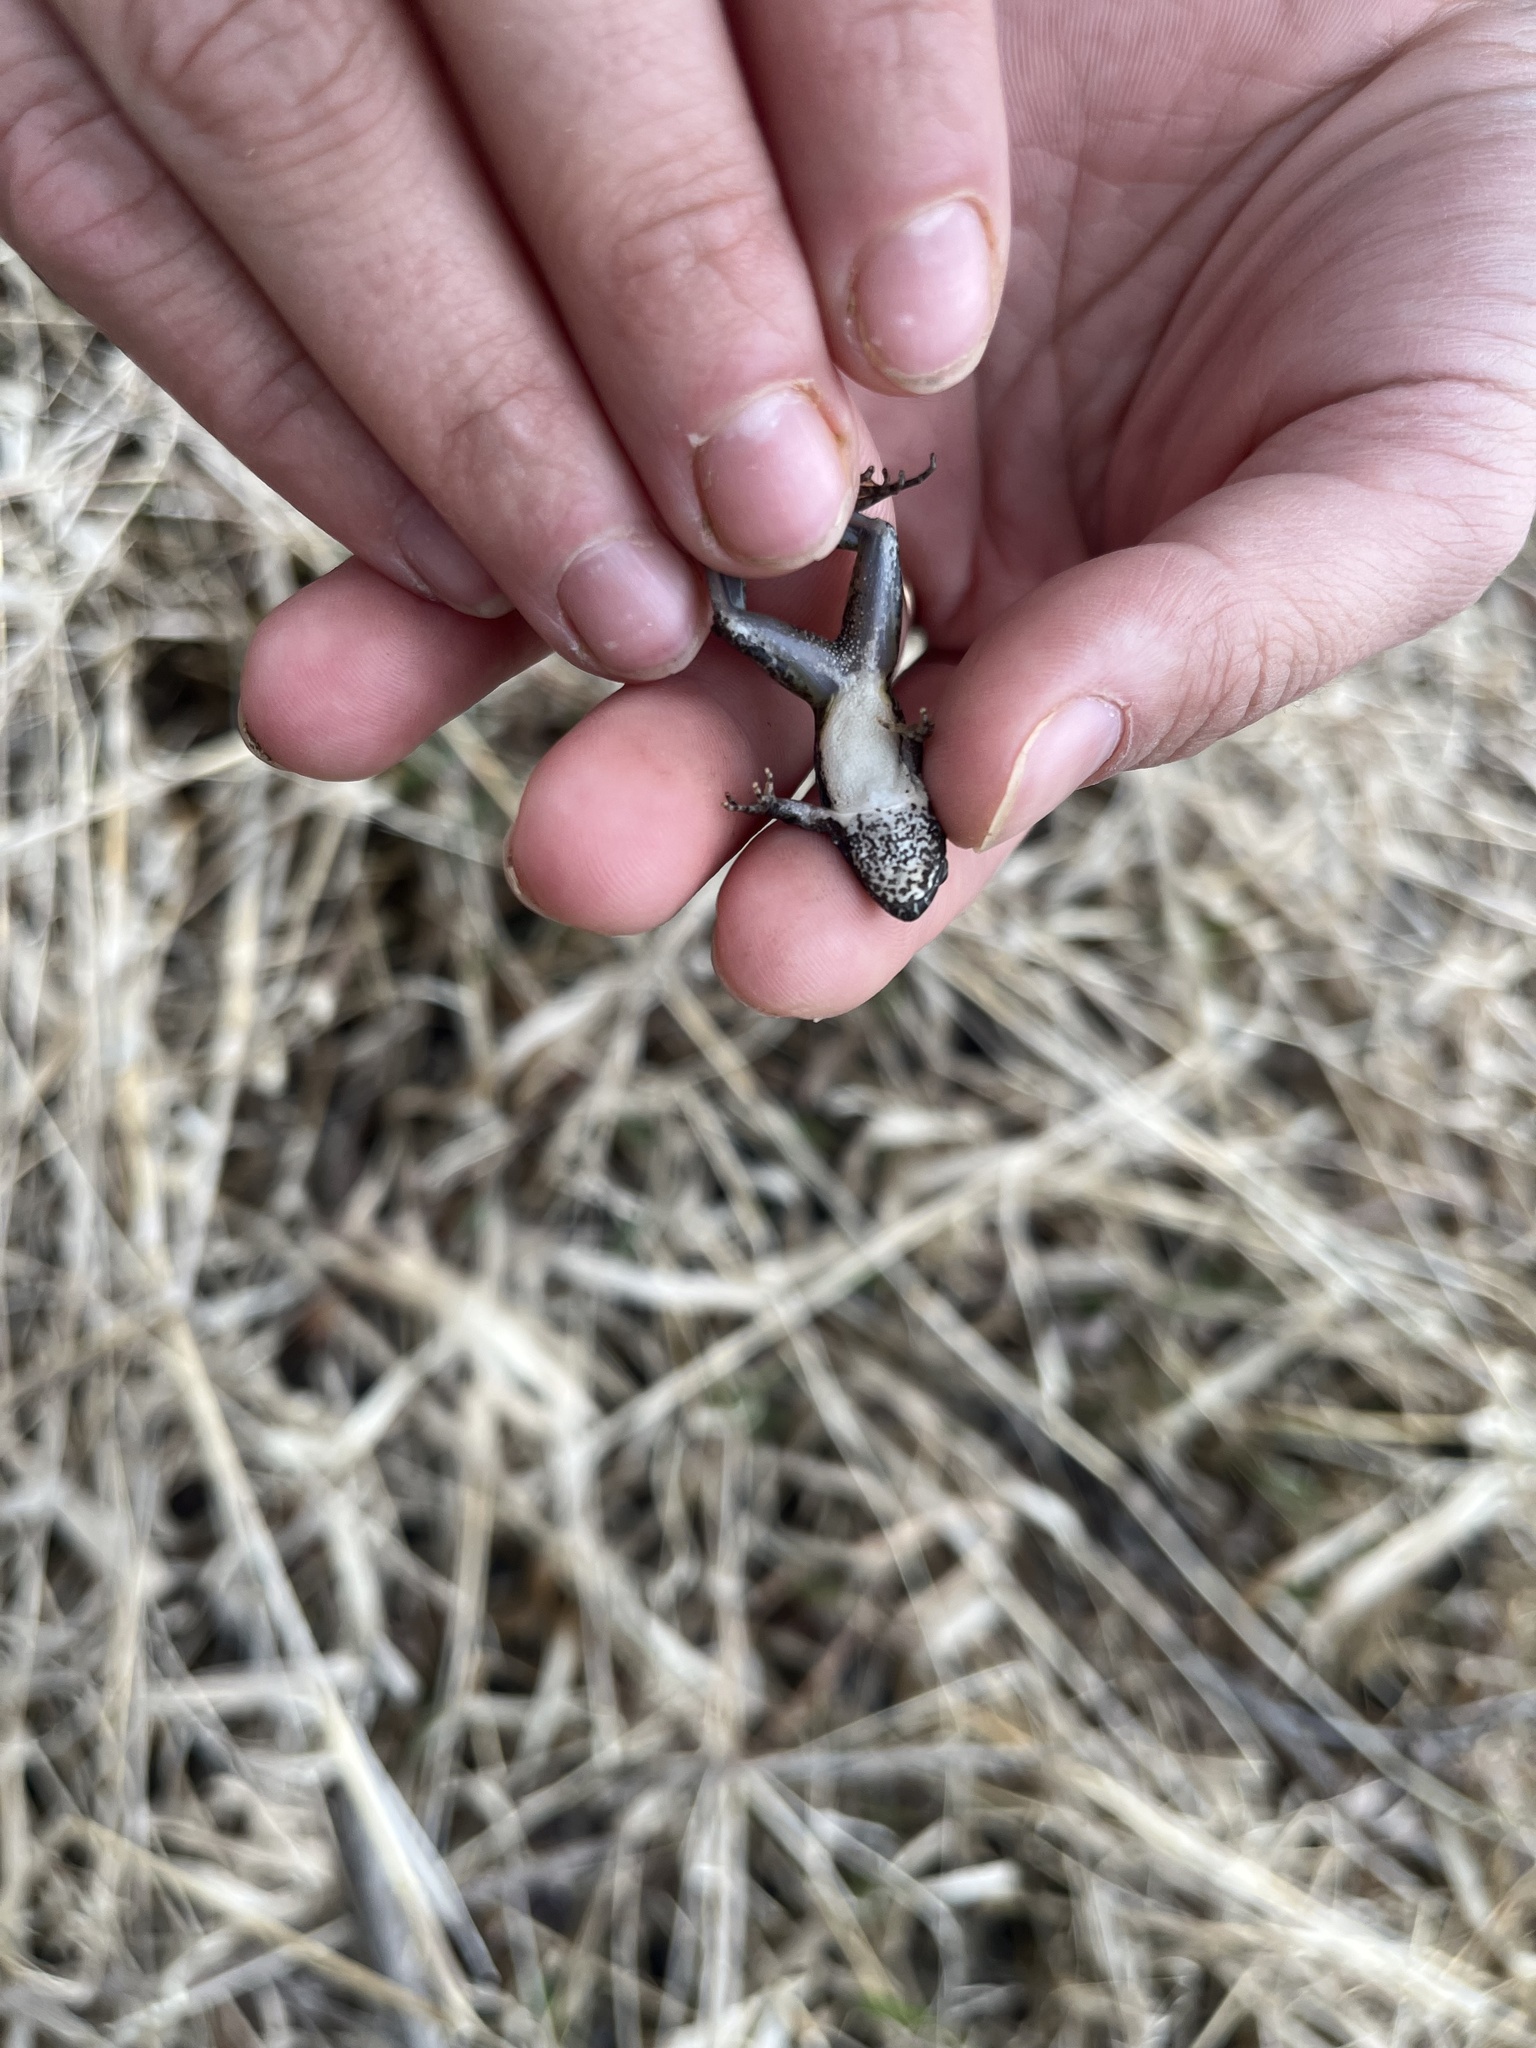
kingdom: Animalia
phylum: Chordata
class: Amphibia
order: Anura
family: Hylidae
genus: Acris
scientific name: Acris blanchardi
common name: Blanchard's cricket frog
